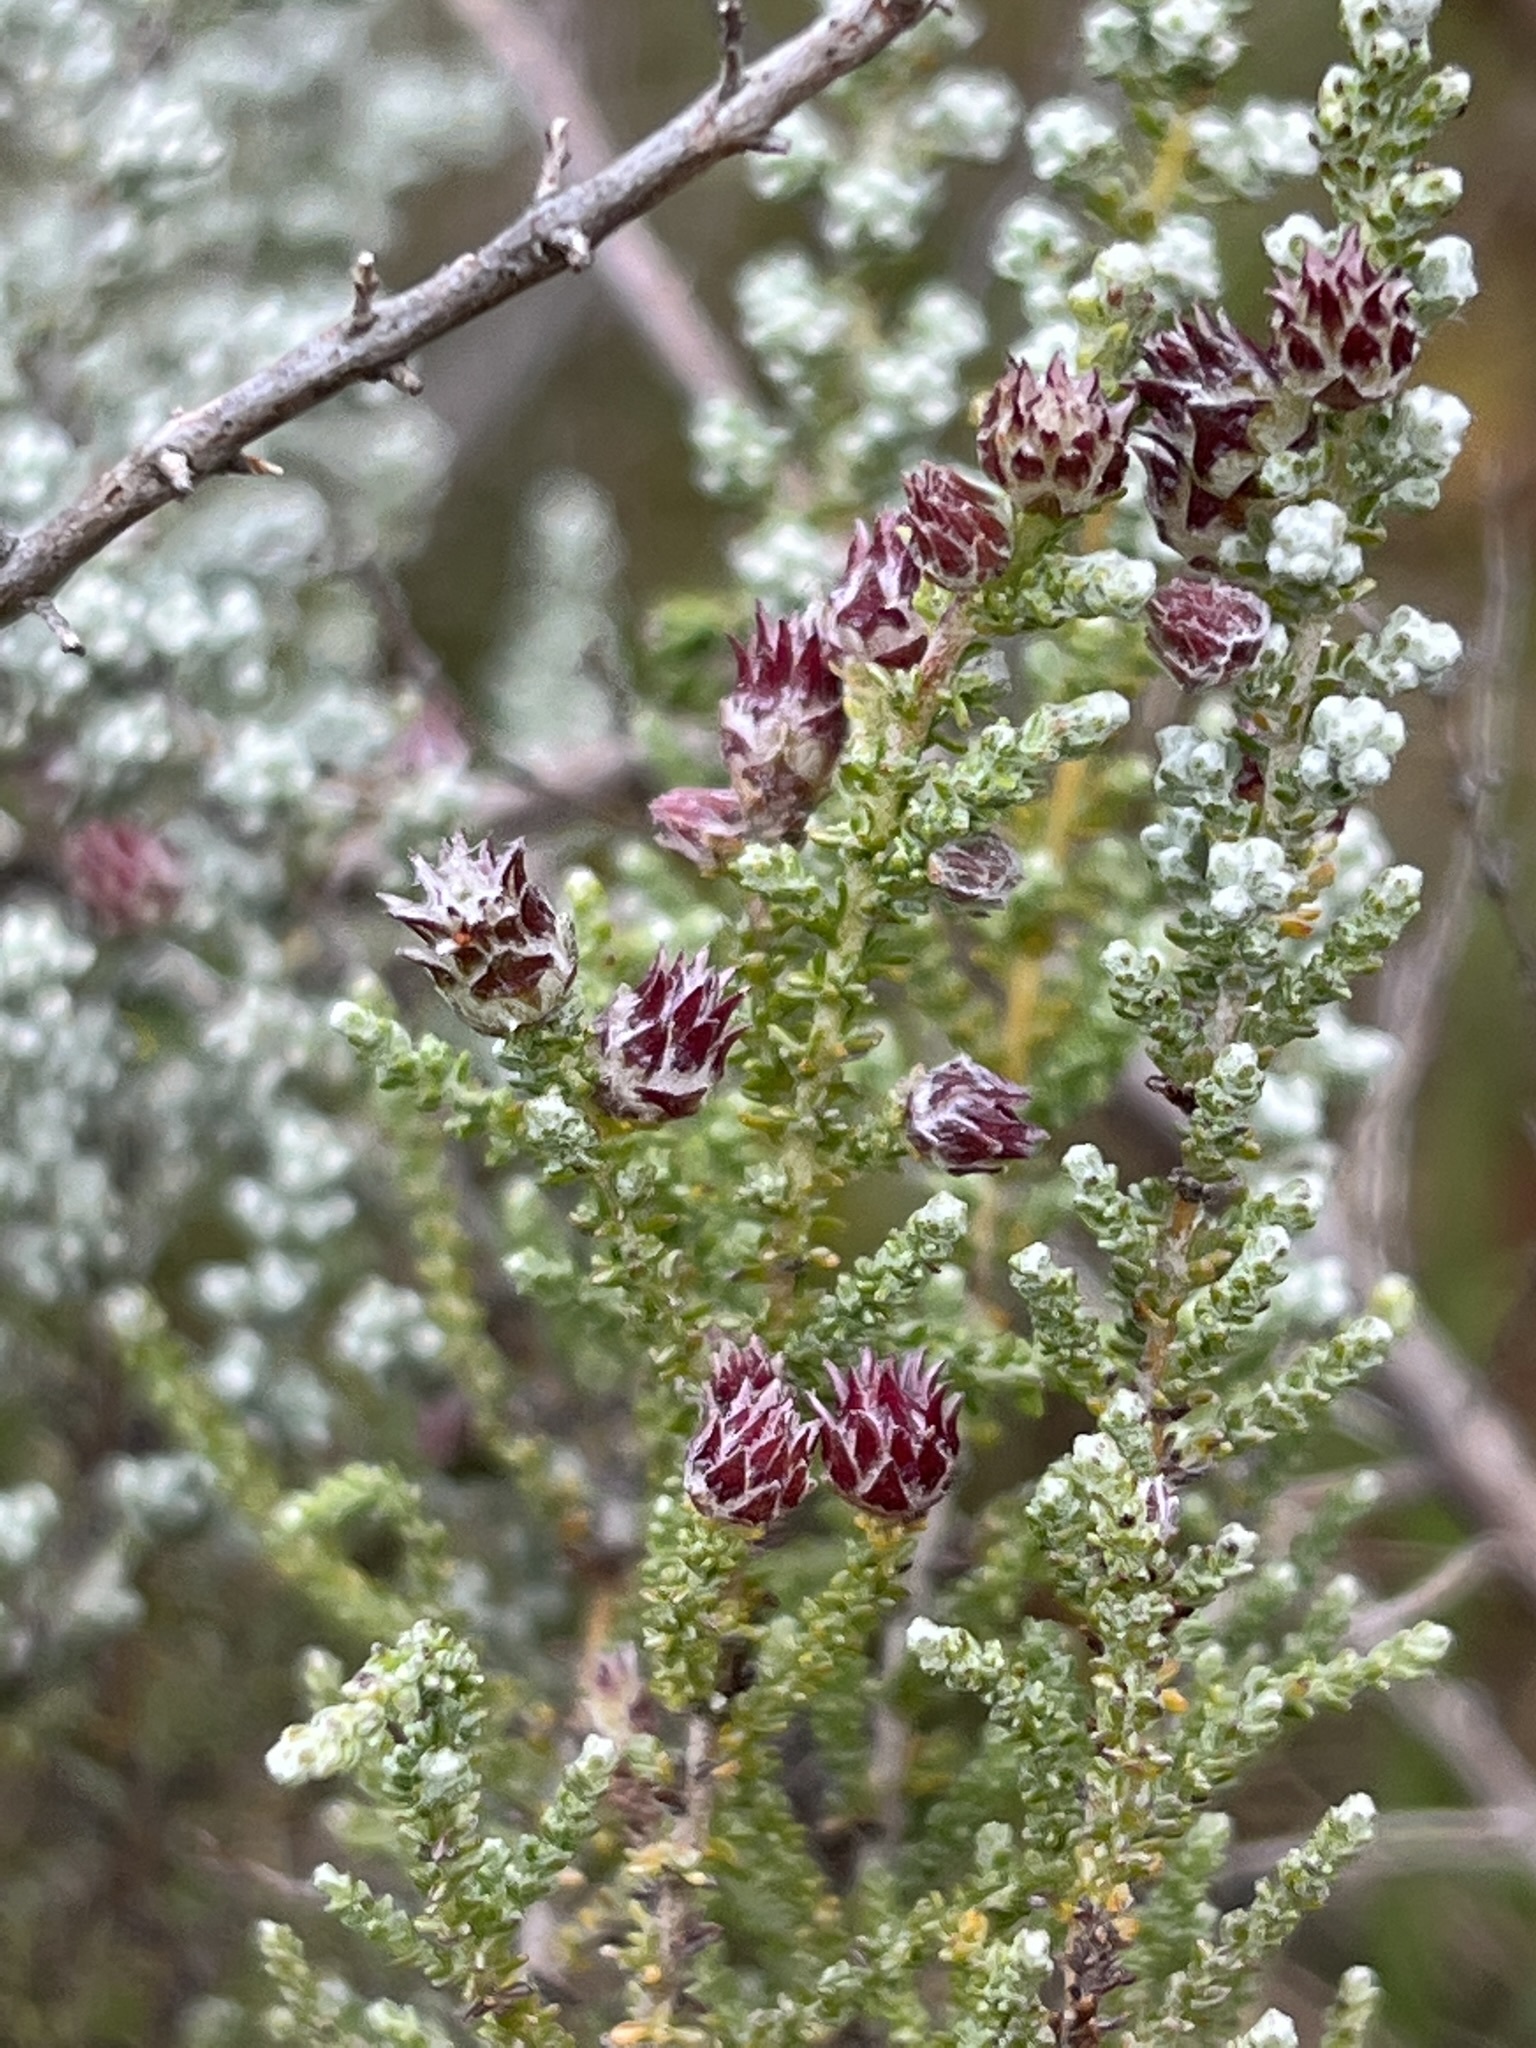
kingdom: Plantae
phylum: Tracheophyta
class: Magnoliopsida
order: Asterales
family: Asteraceae
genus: Seriphium
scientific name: Seriphium plumosum
